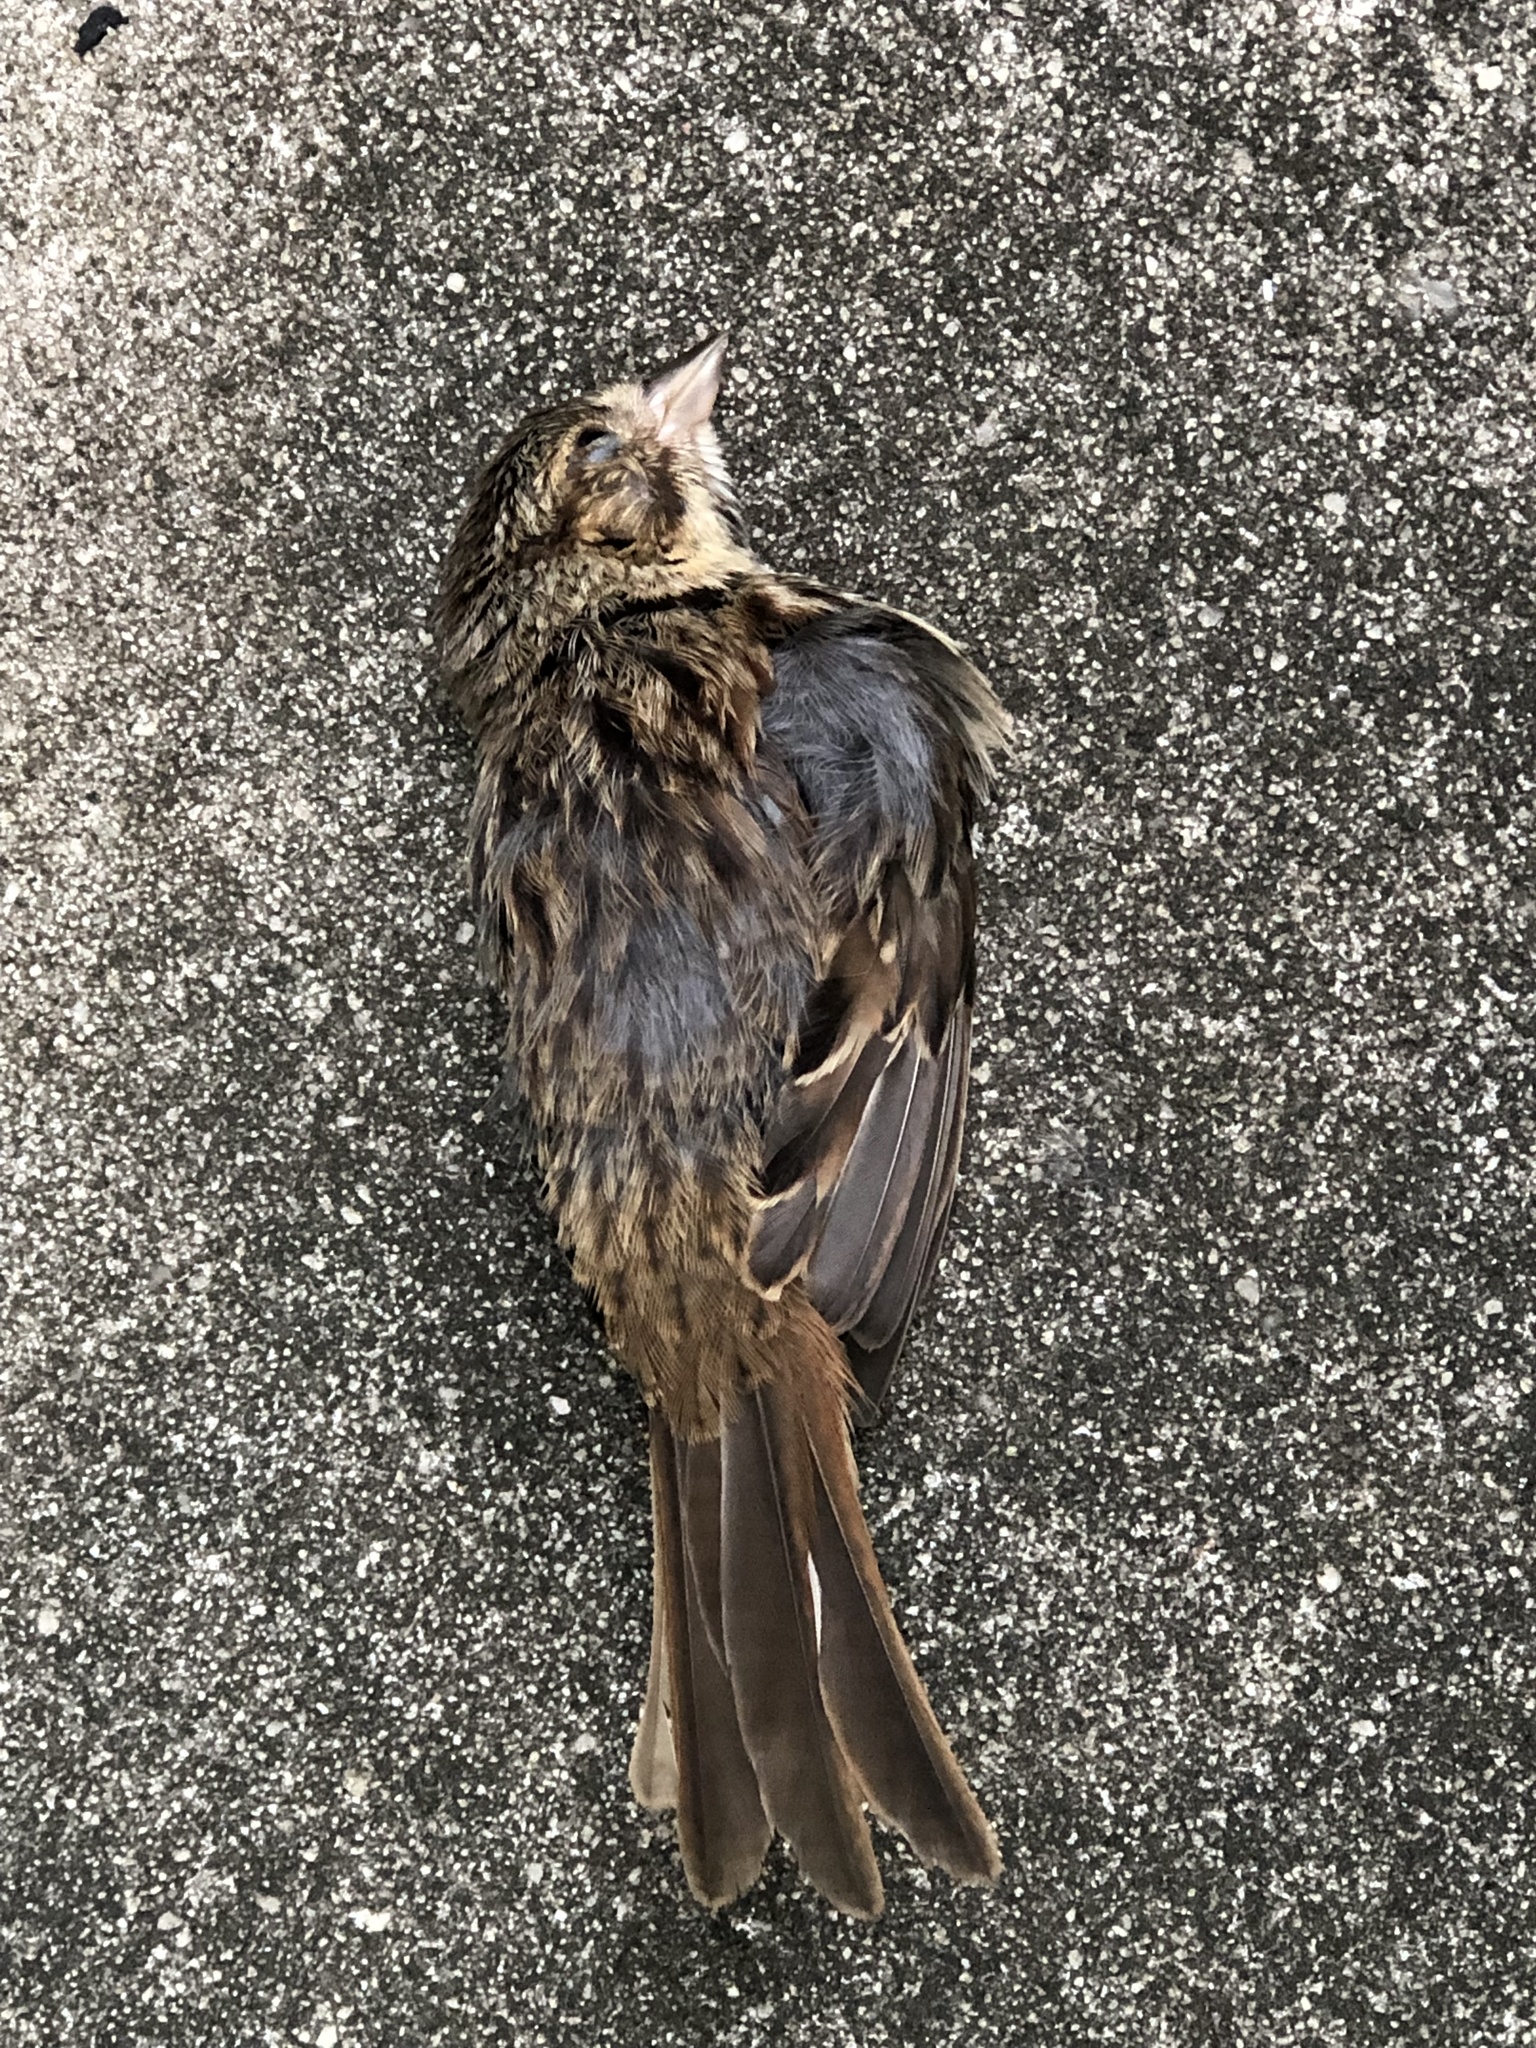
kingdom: Animalia
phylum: Chordata
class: Aves
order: Passeriformes
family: Passerellidae
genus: Melospiza
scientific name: Melospiza melodia
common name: Song sparrow
